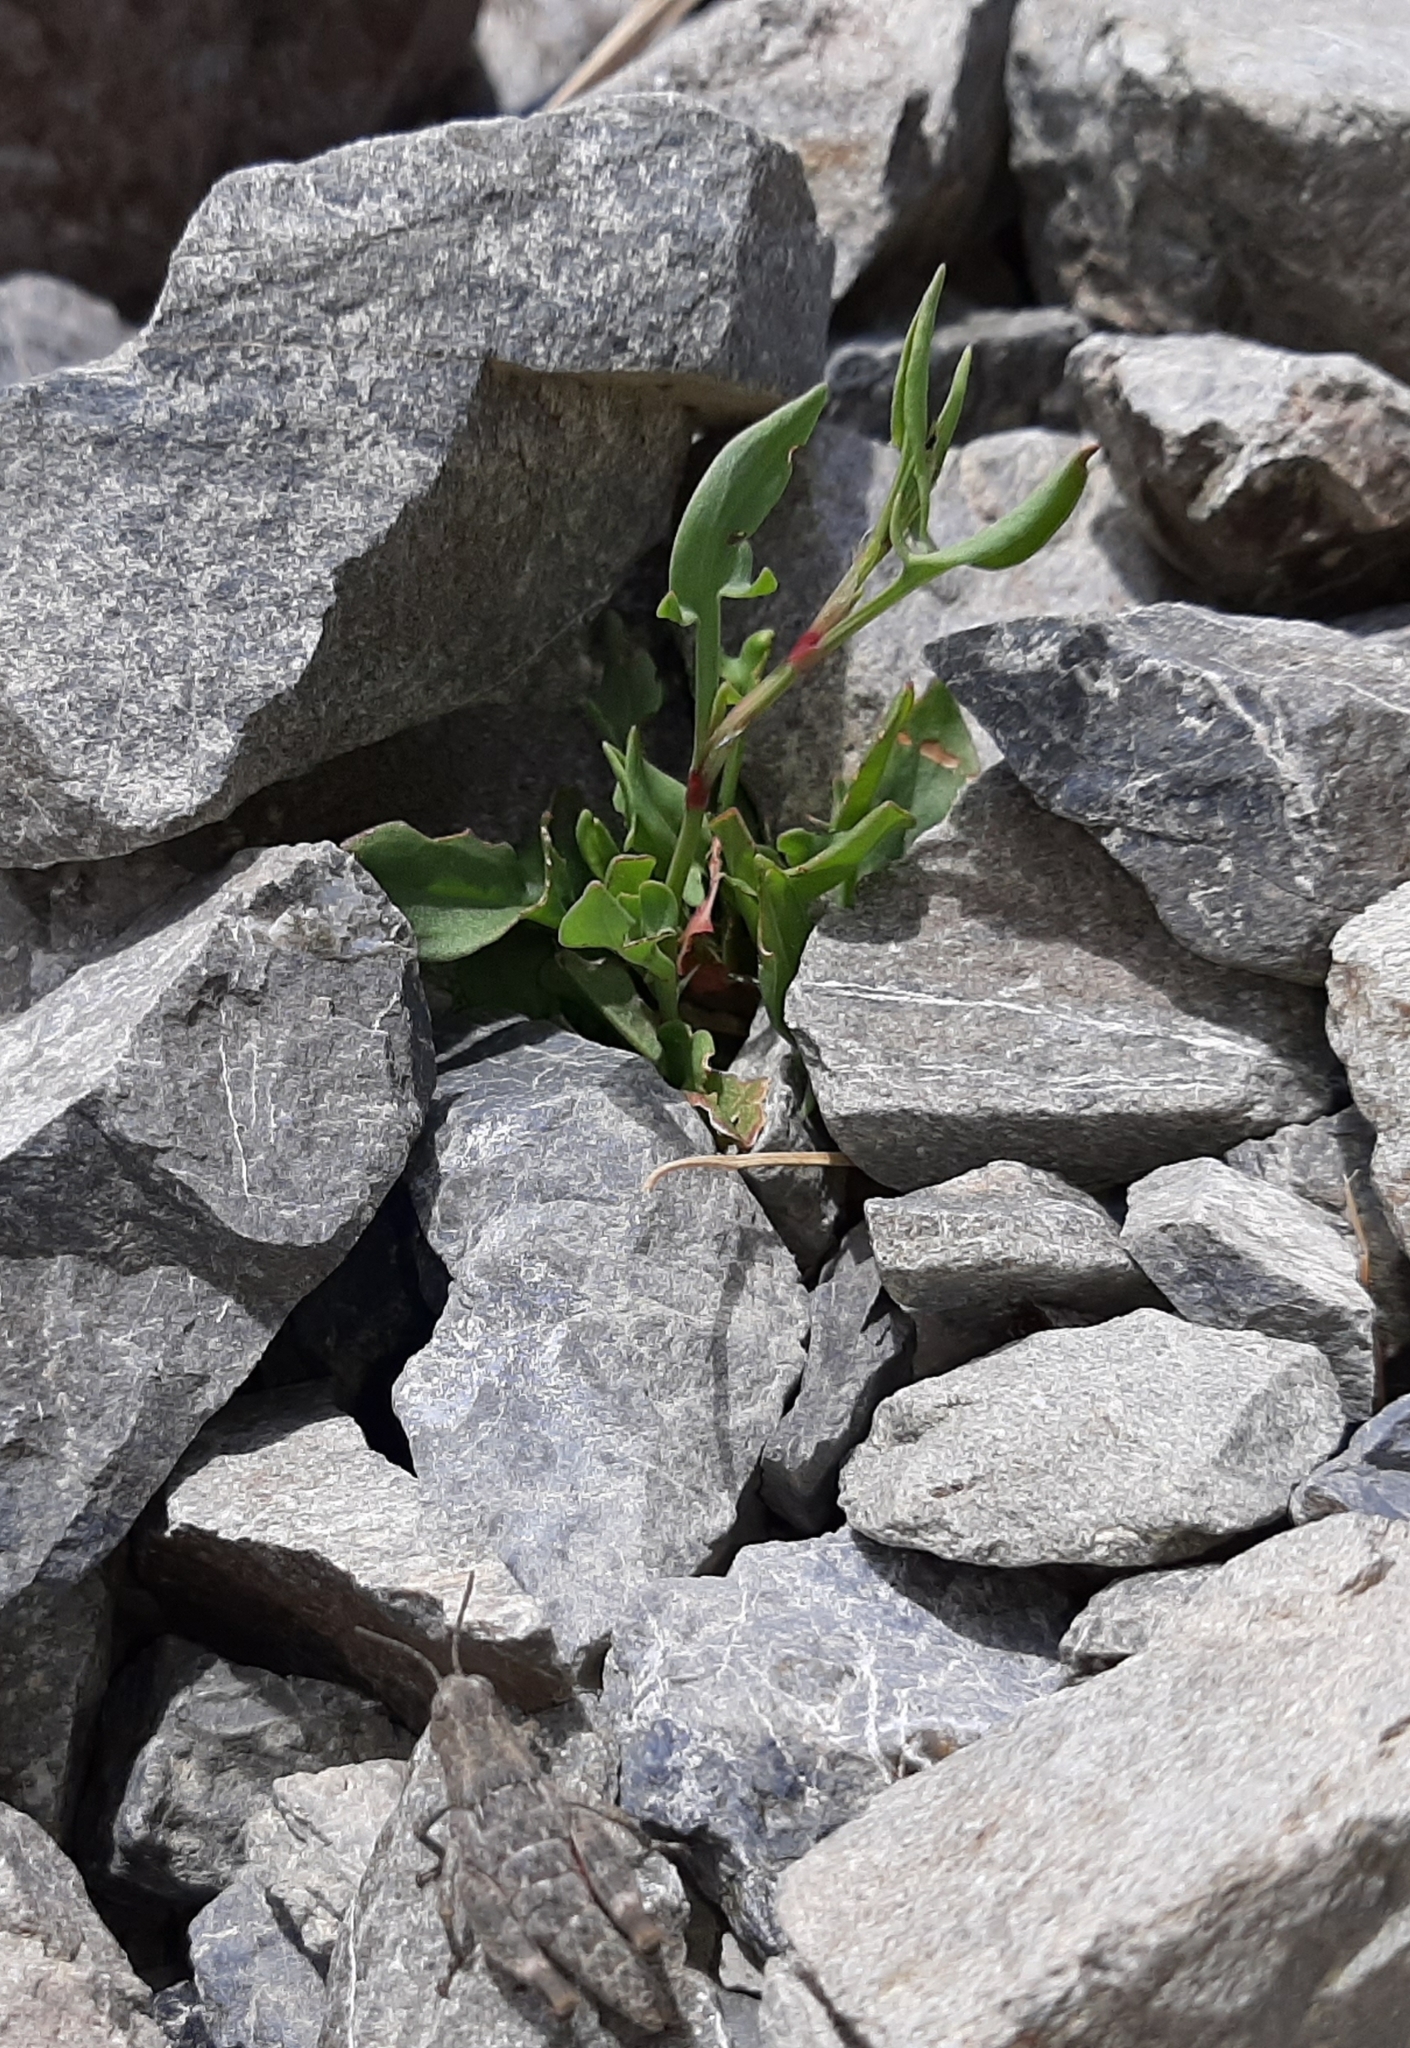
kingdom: Plantae
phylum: Tracheophyta
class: Magnoliopsida
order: Caryophyllales
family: Polygonaceae
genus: Rumex
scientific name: Rumex acetosella
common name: Common sheep sorrel
